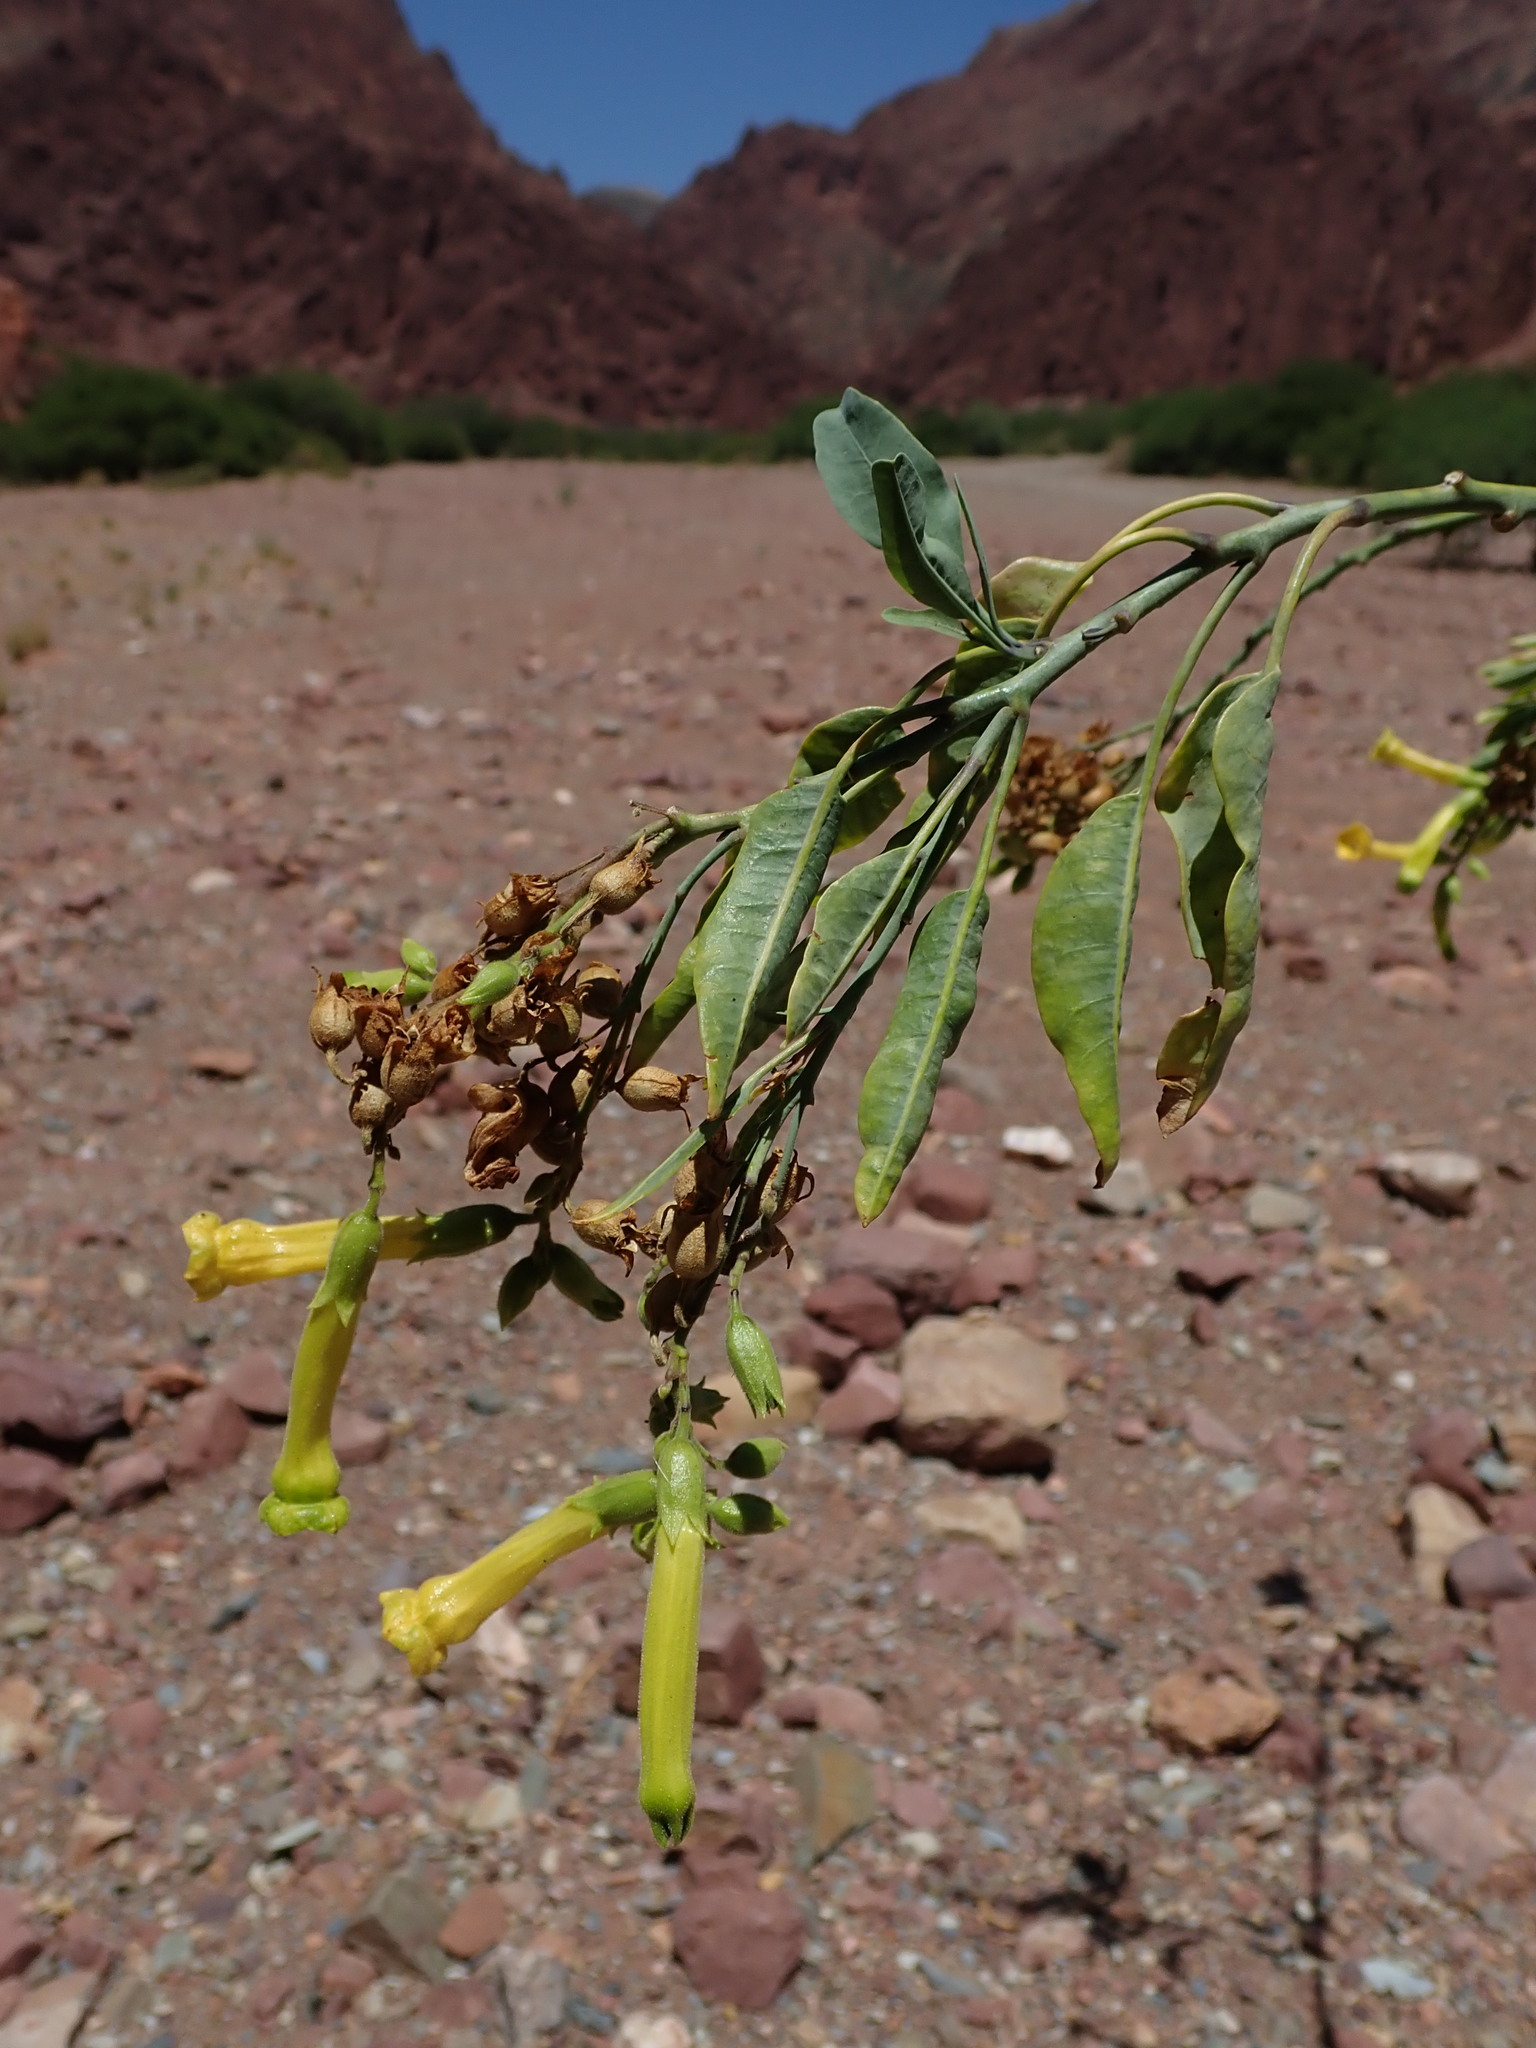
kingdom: Plantae
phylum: Tracheophyta
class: Magnoliopsida
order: Solanales
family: Solanaceae
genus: Nicotiana
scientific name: Nicotiana glauca
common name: Tree tobacco
